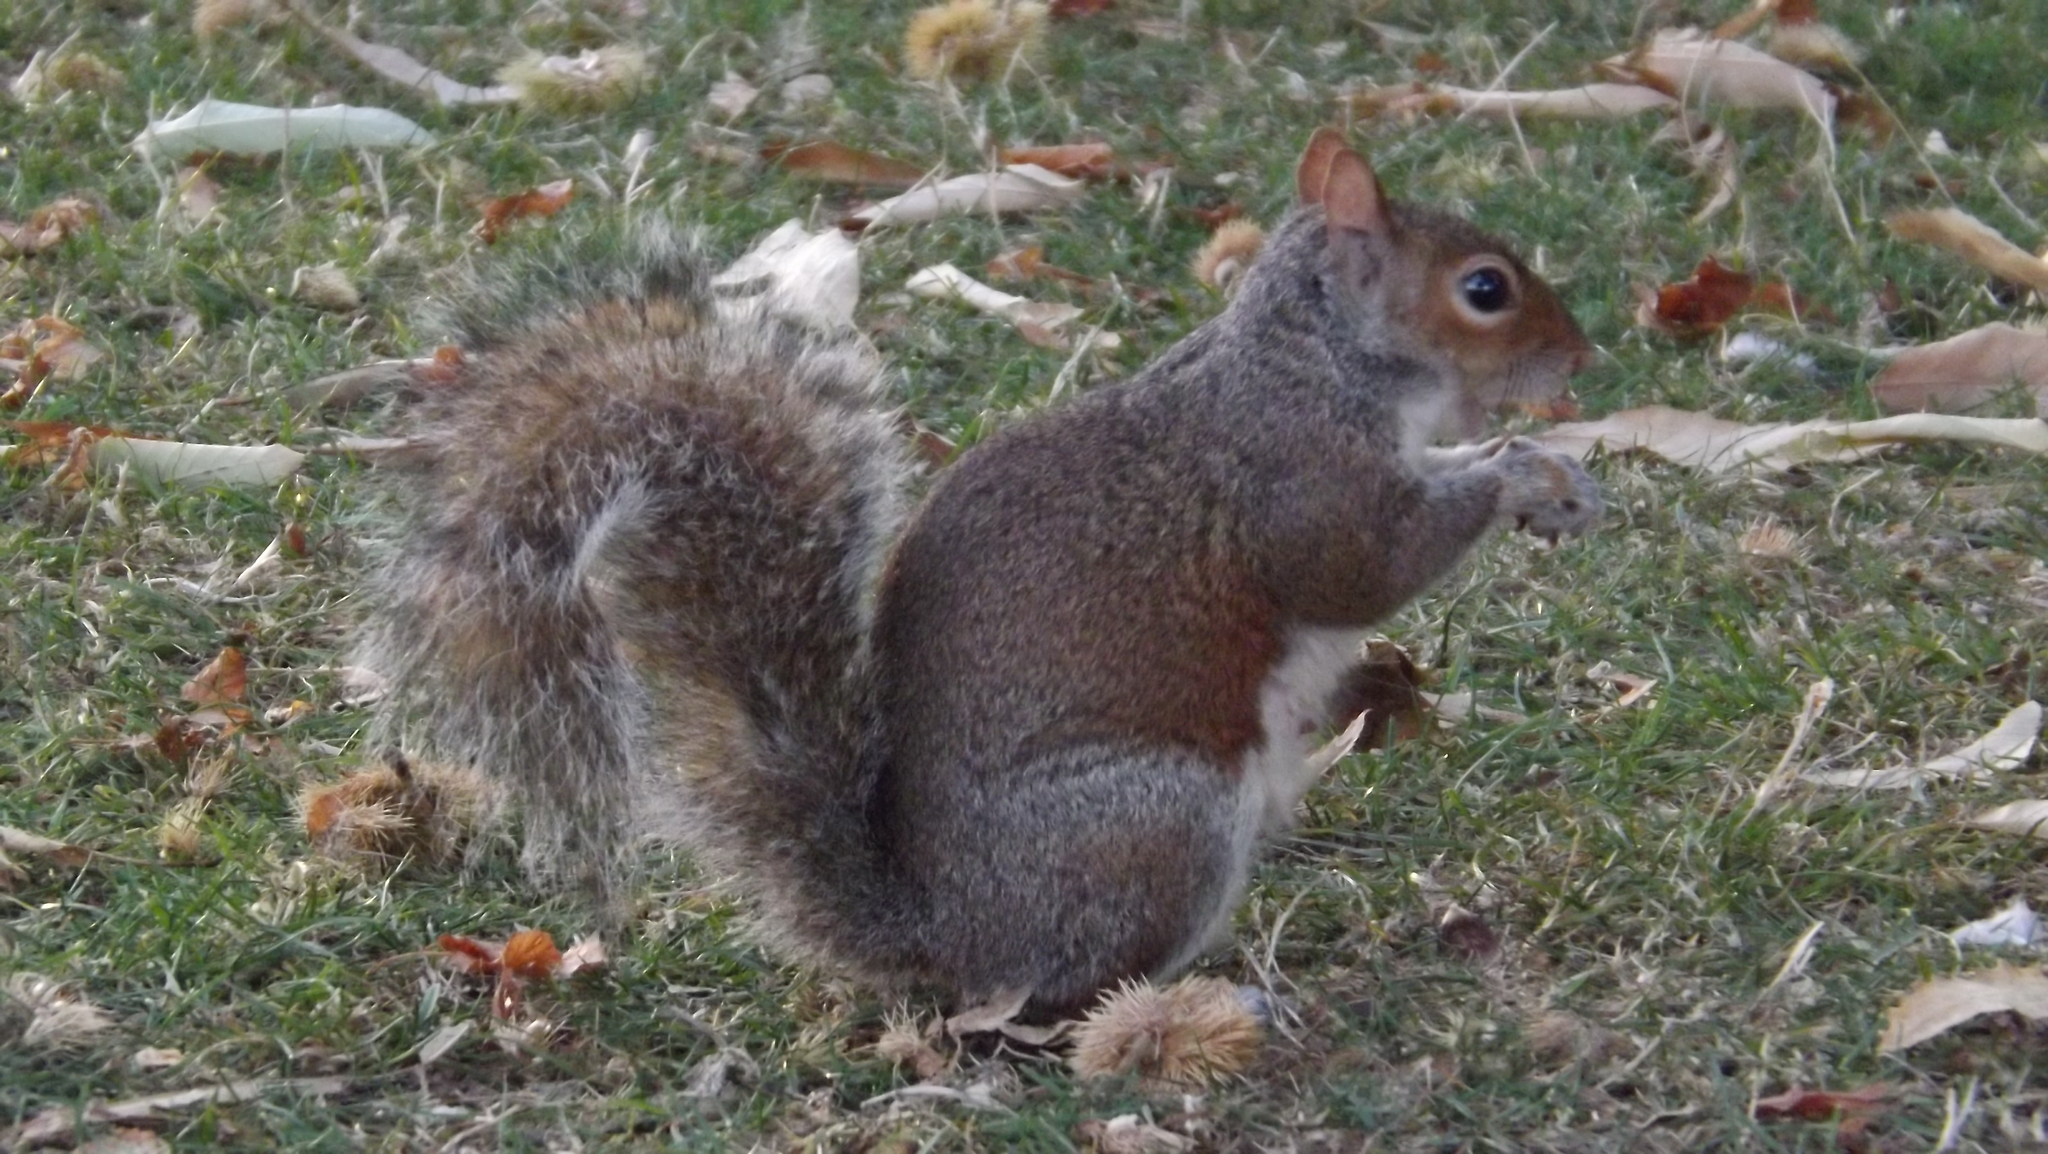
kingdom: Animalia
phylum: Chordata
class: Mammalia
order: Rodentia
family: Sciuridae
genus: Sciurus
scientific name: Sciurus carolinensis
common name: Eastern gray squirrel
